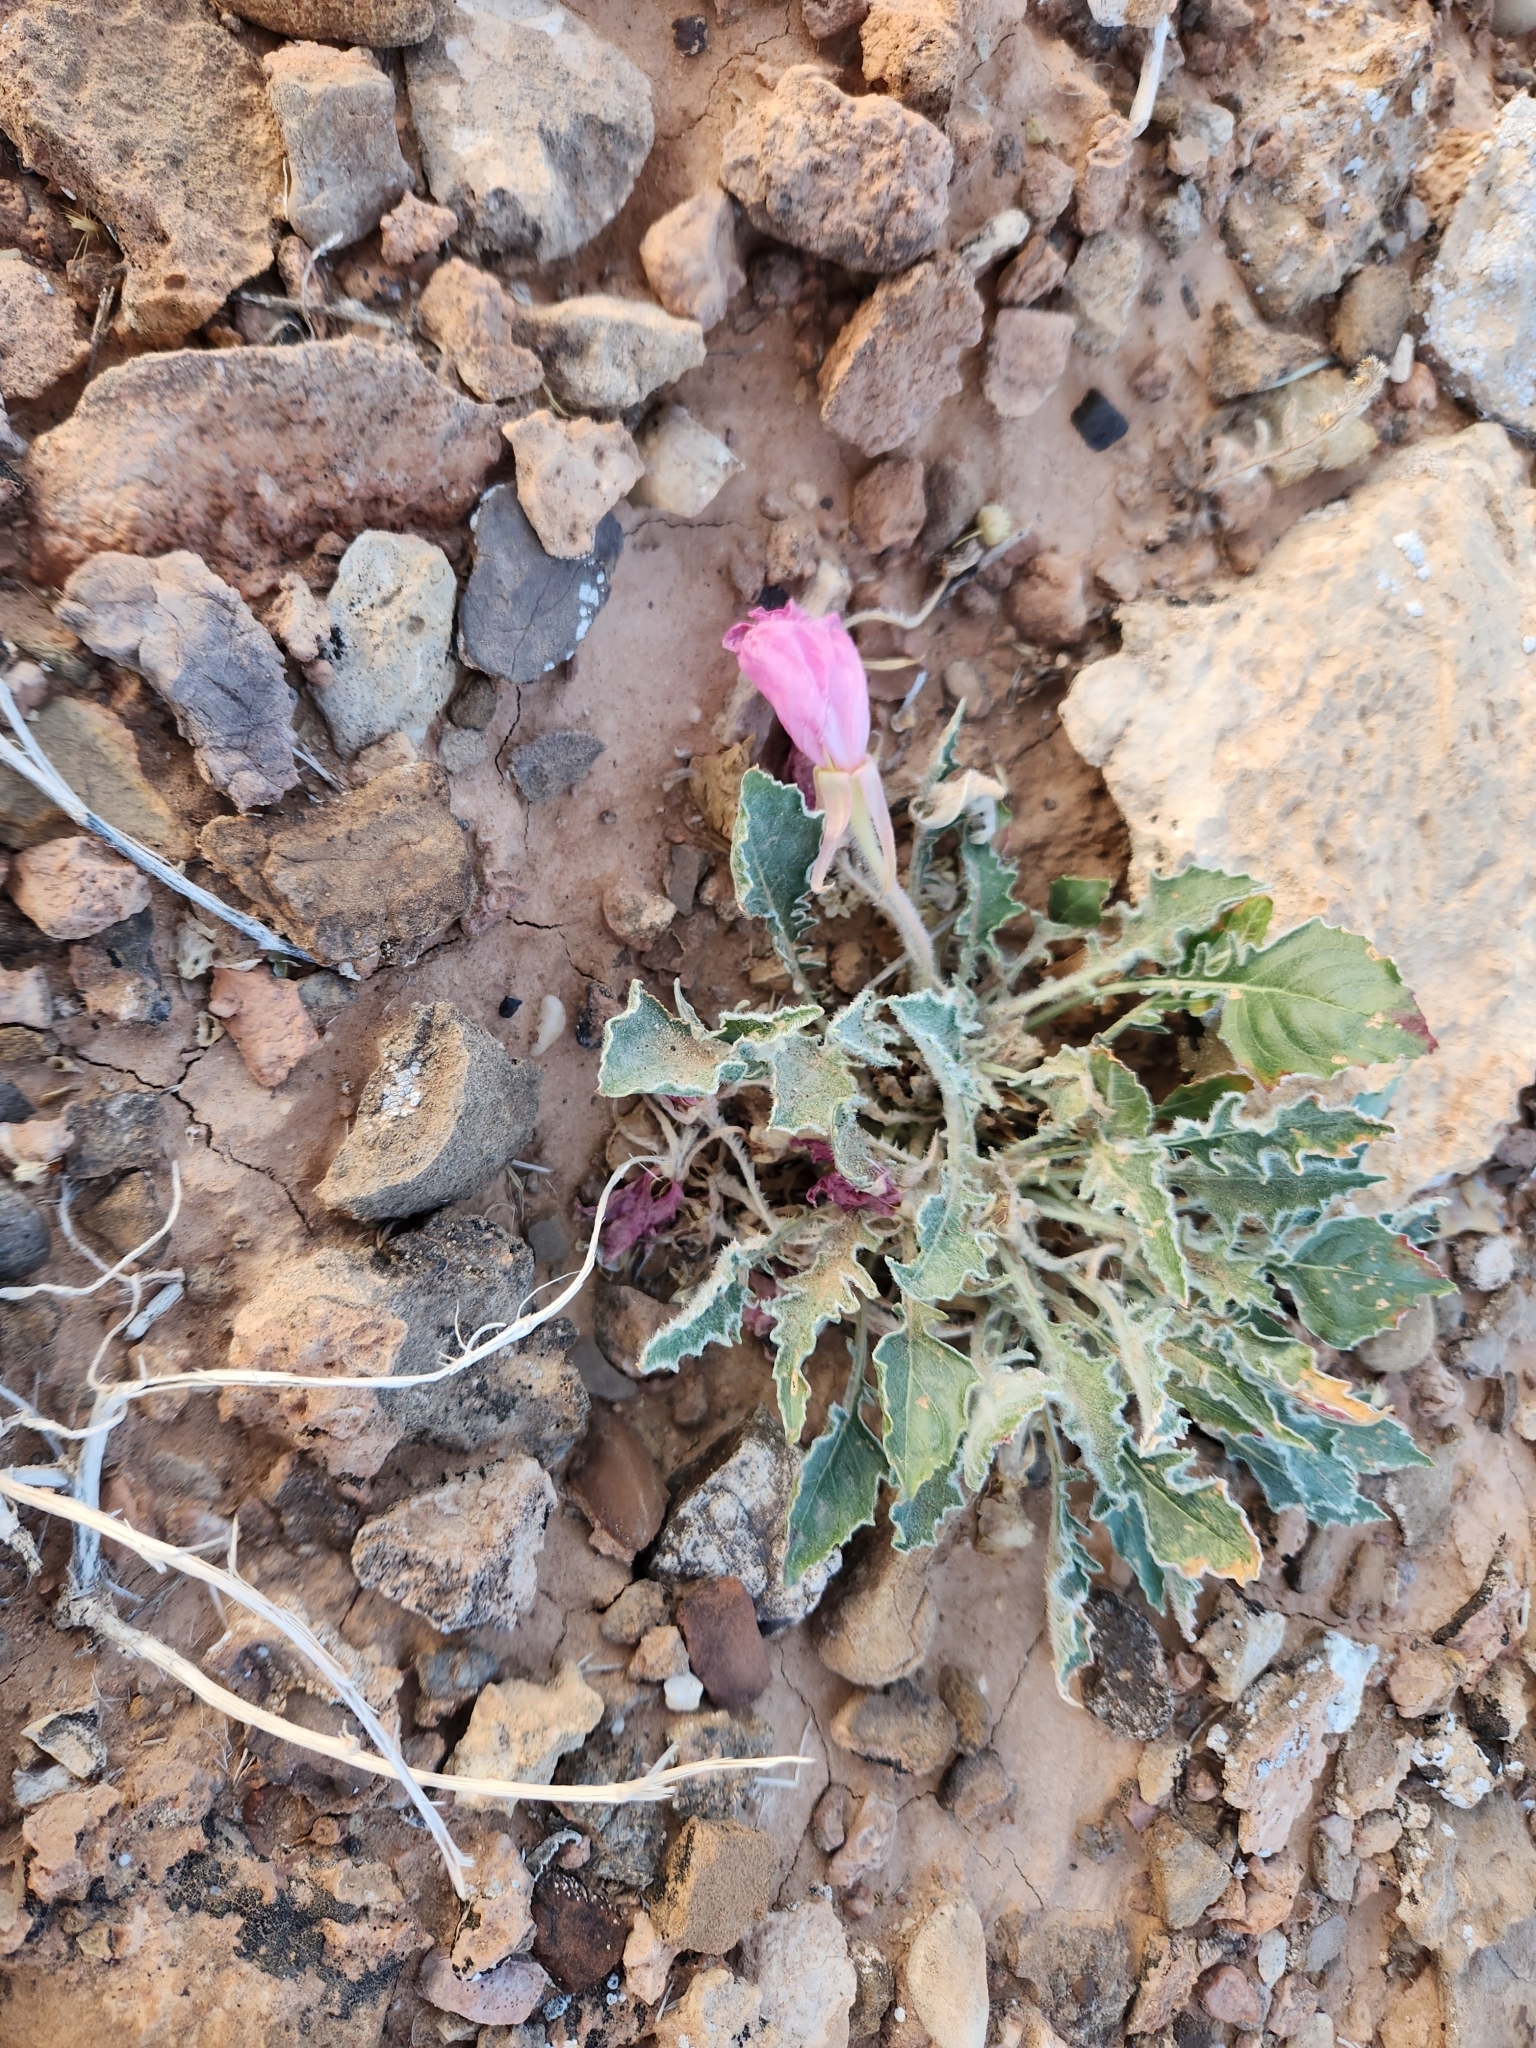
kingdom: Plantae
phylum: Tracheophyta
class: Magnoliopsida
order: Myrtales
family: Onagraceae
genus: Oenothera
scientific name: Oenothera cespitosa
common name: Tufted evening-primrose
